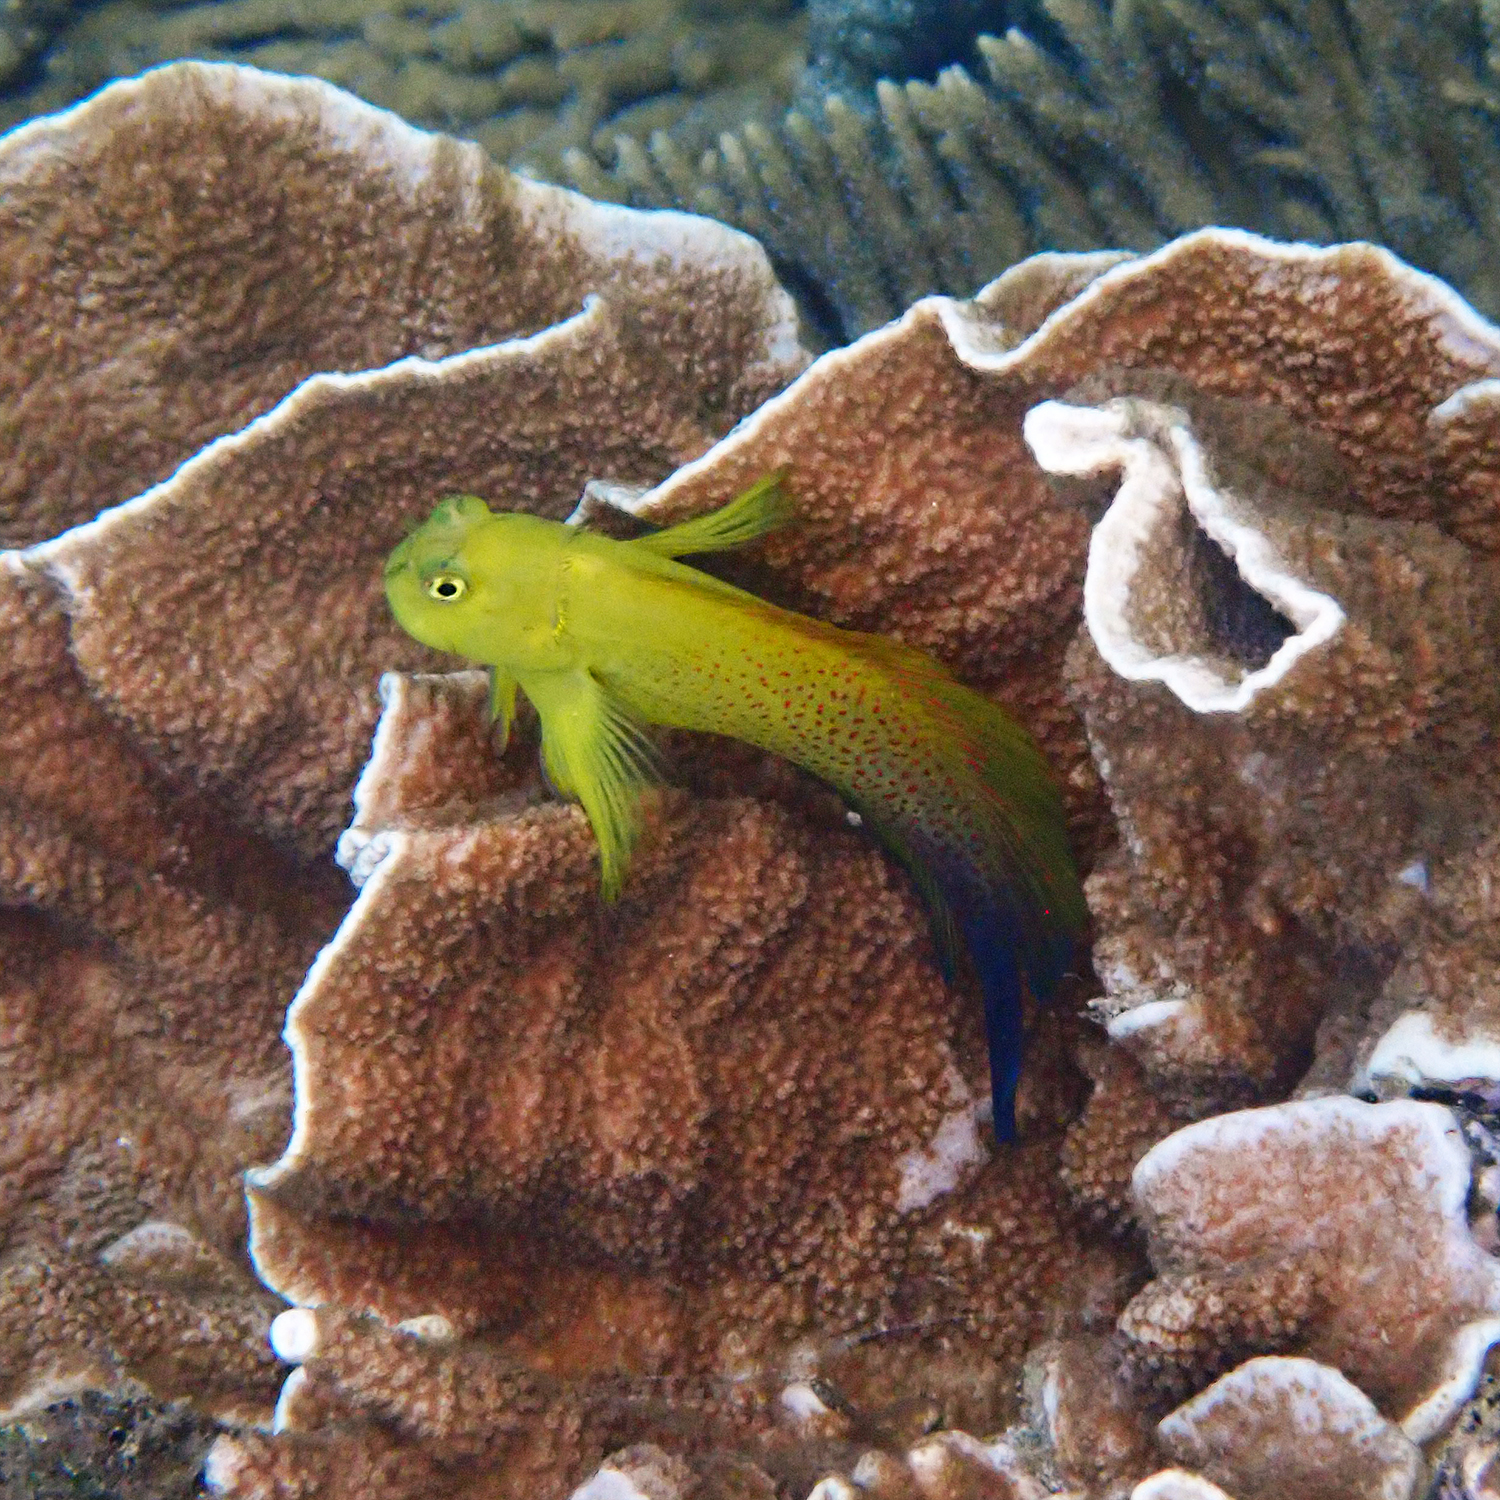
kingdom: Animalia
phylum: Chordata
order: Perciformes
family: Blenniidae
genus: Cirripectes
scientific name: Cirripectes chelomatus
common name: Lady musgrave blenny
